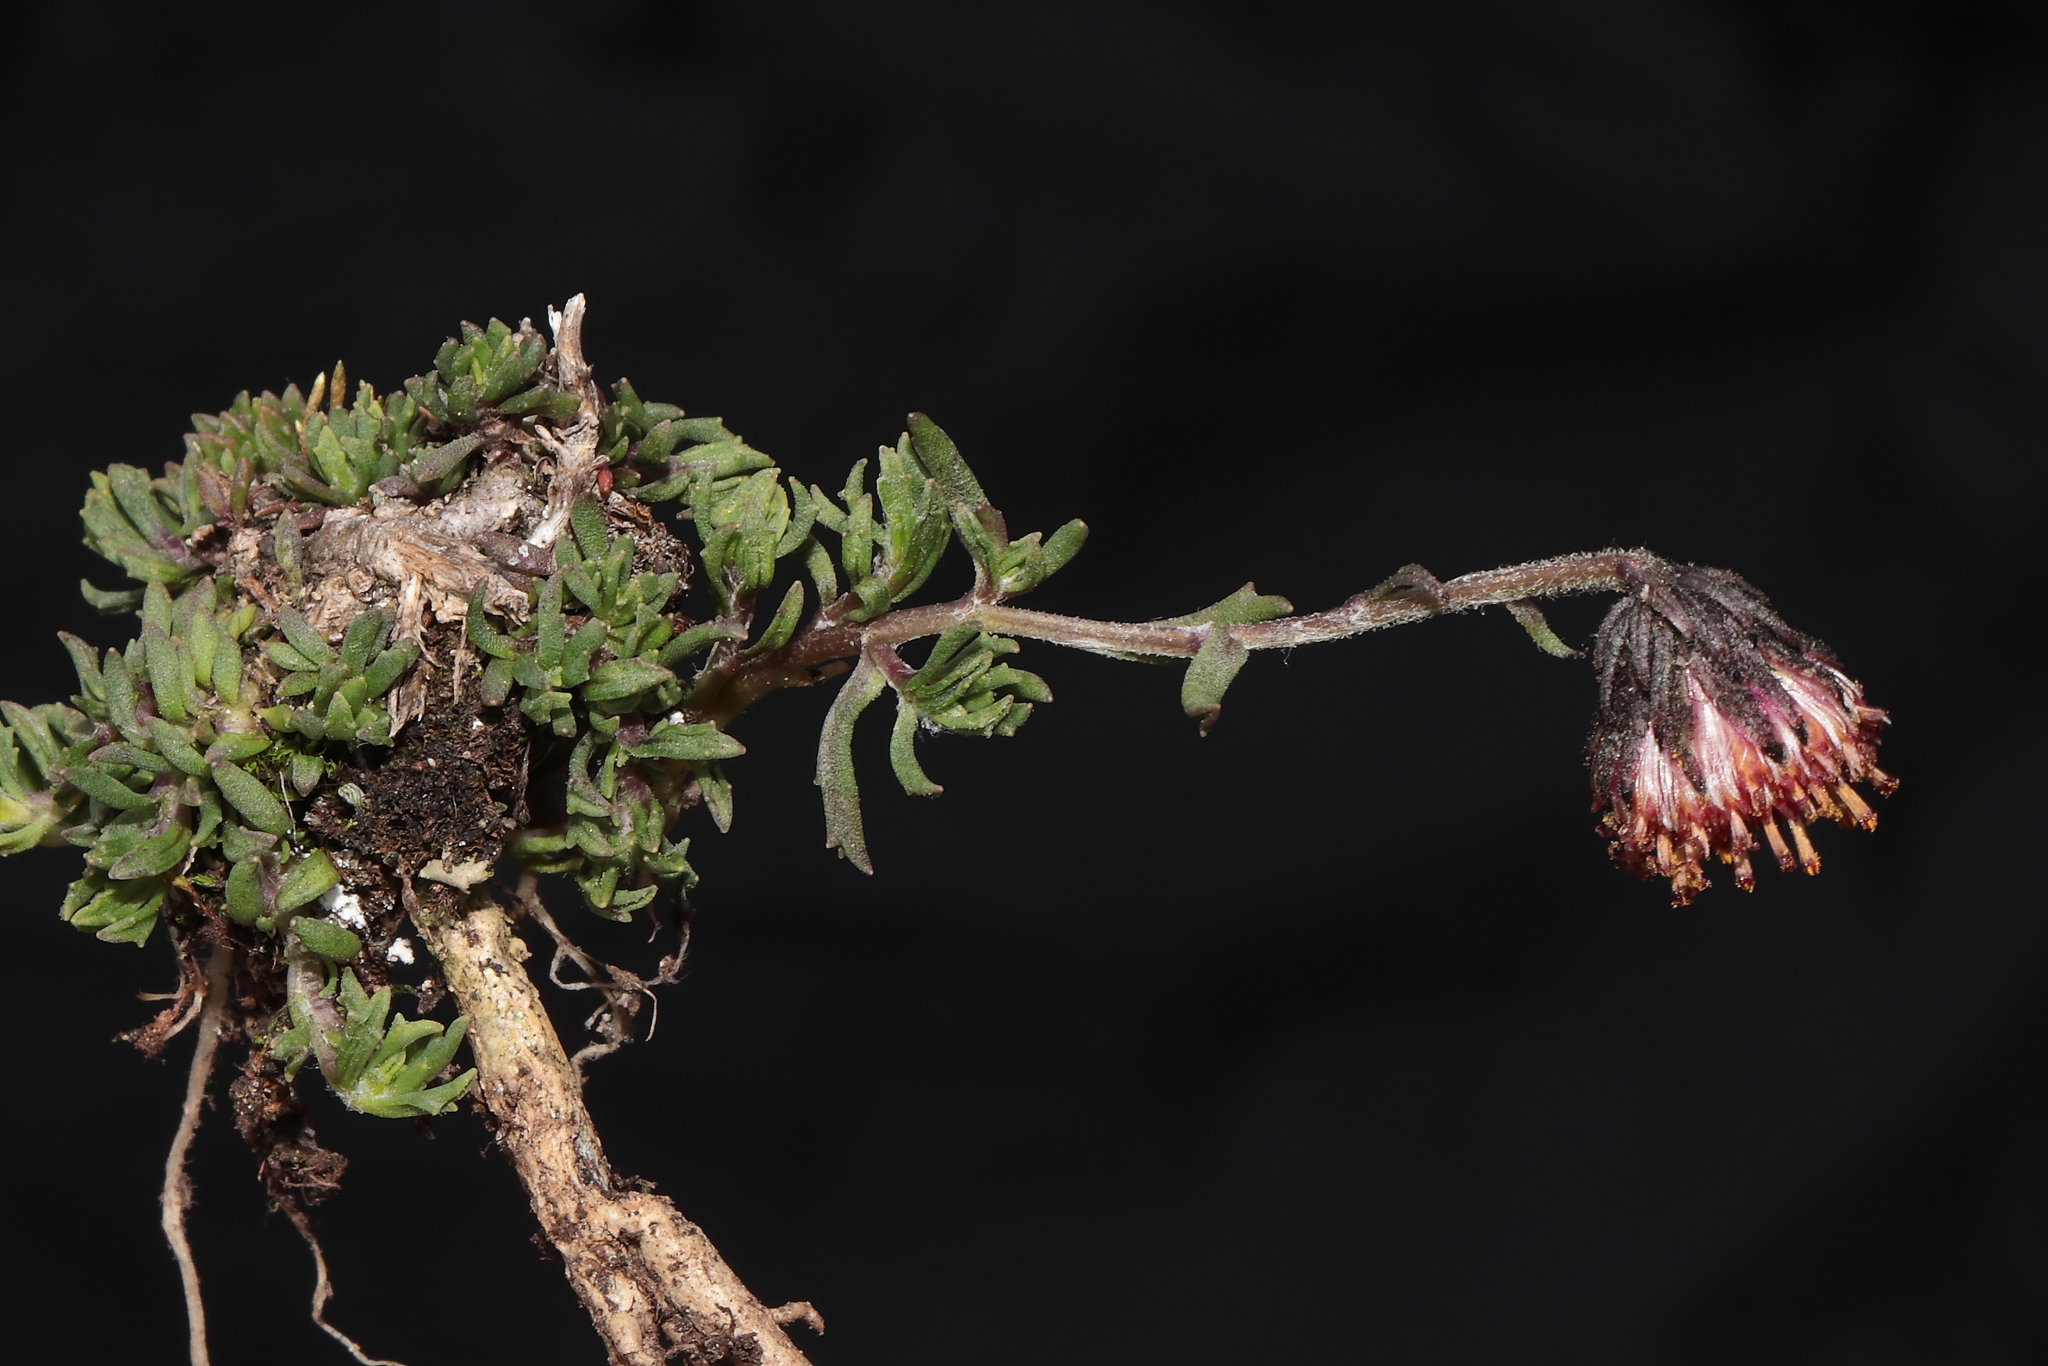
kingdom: Plantae
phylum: Tracheophyta
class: Magnoliopsida
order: Asterales
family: Asteraceae
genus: Senecio
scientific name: Senecio danai
